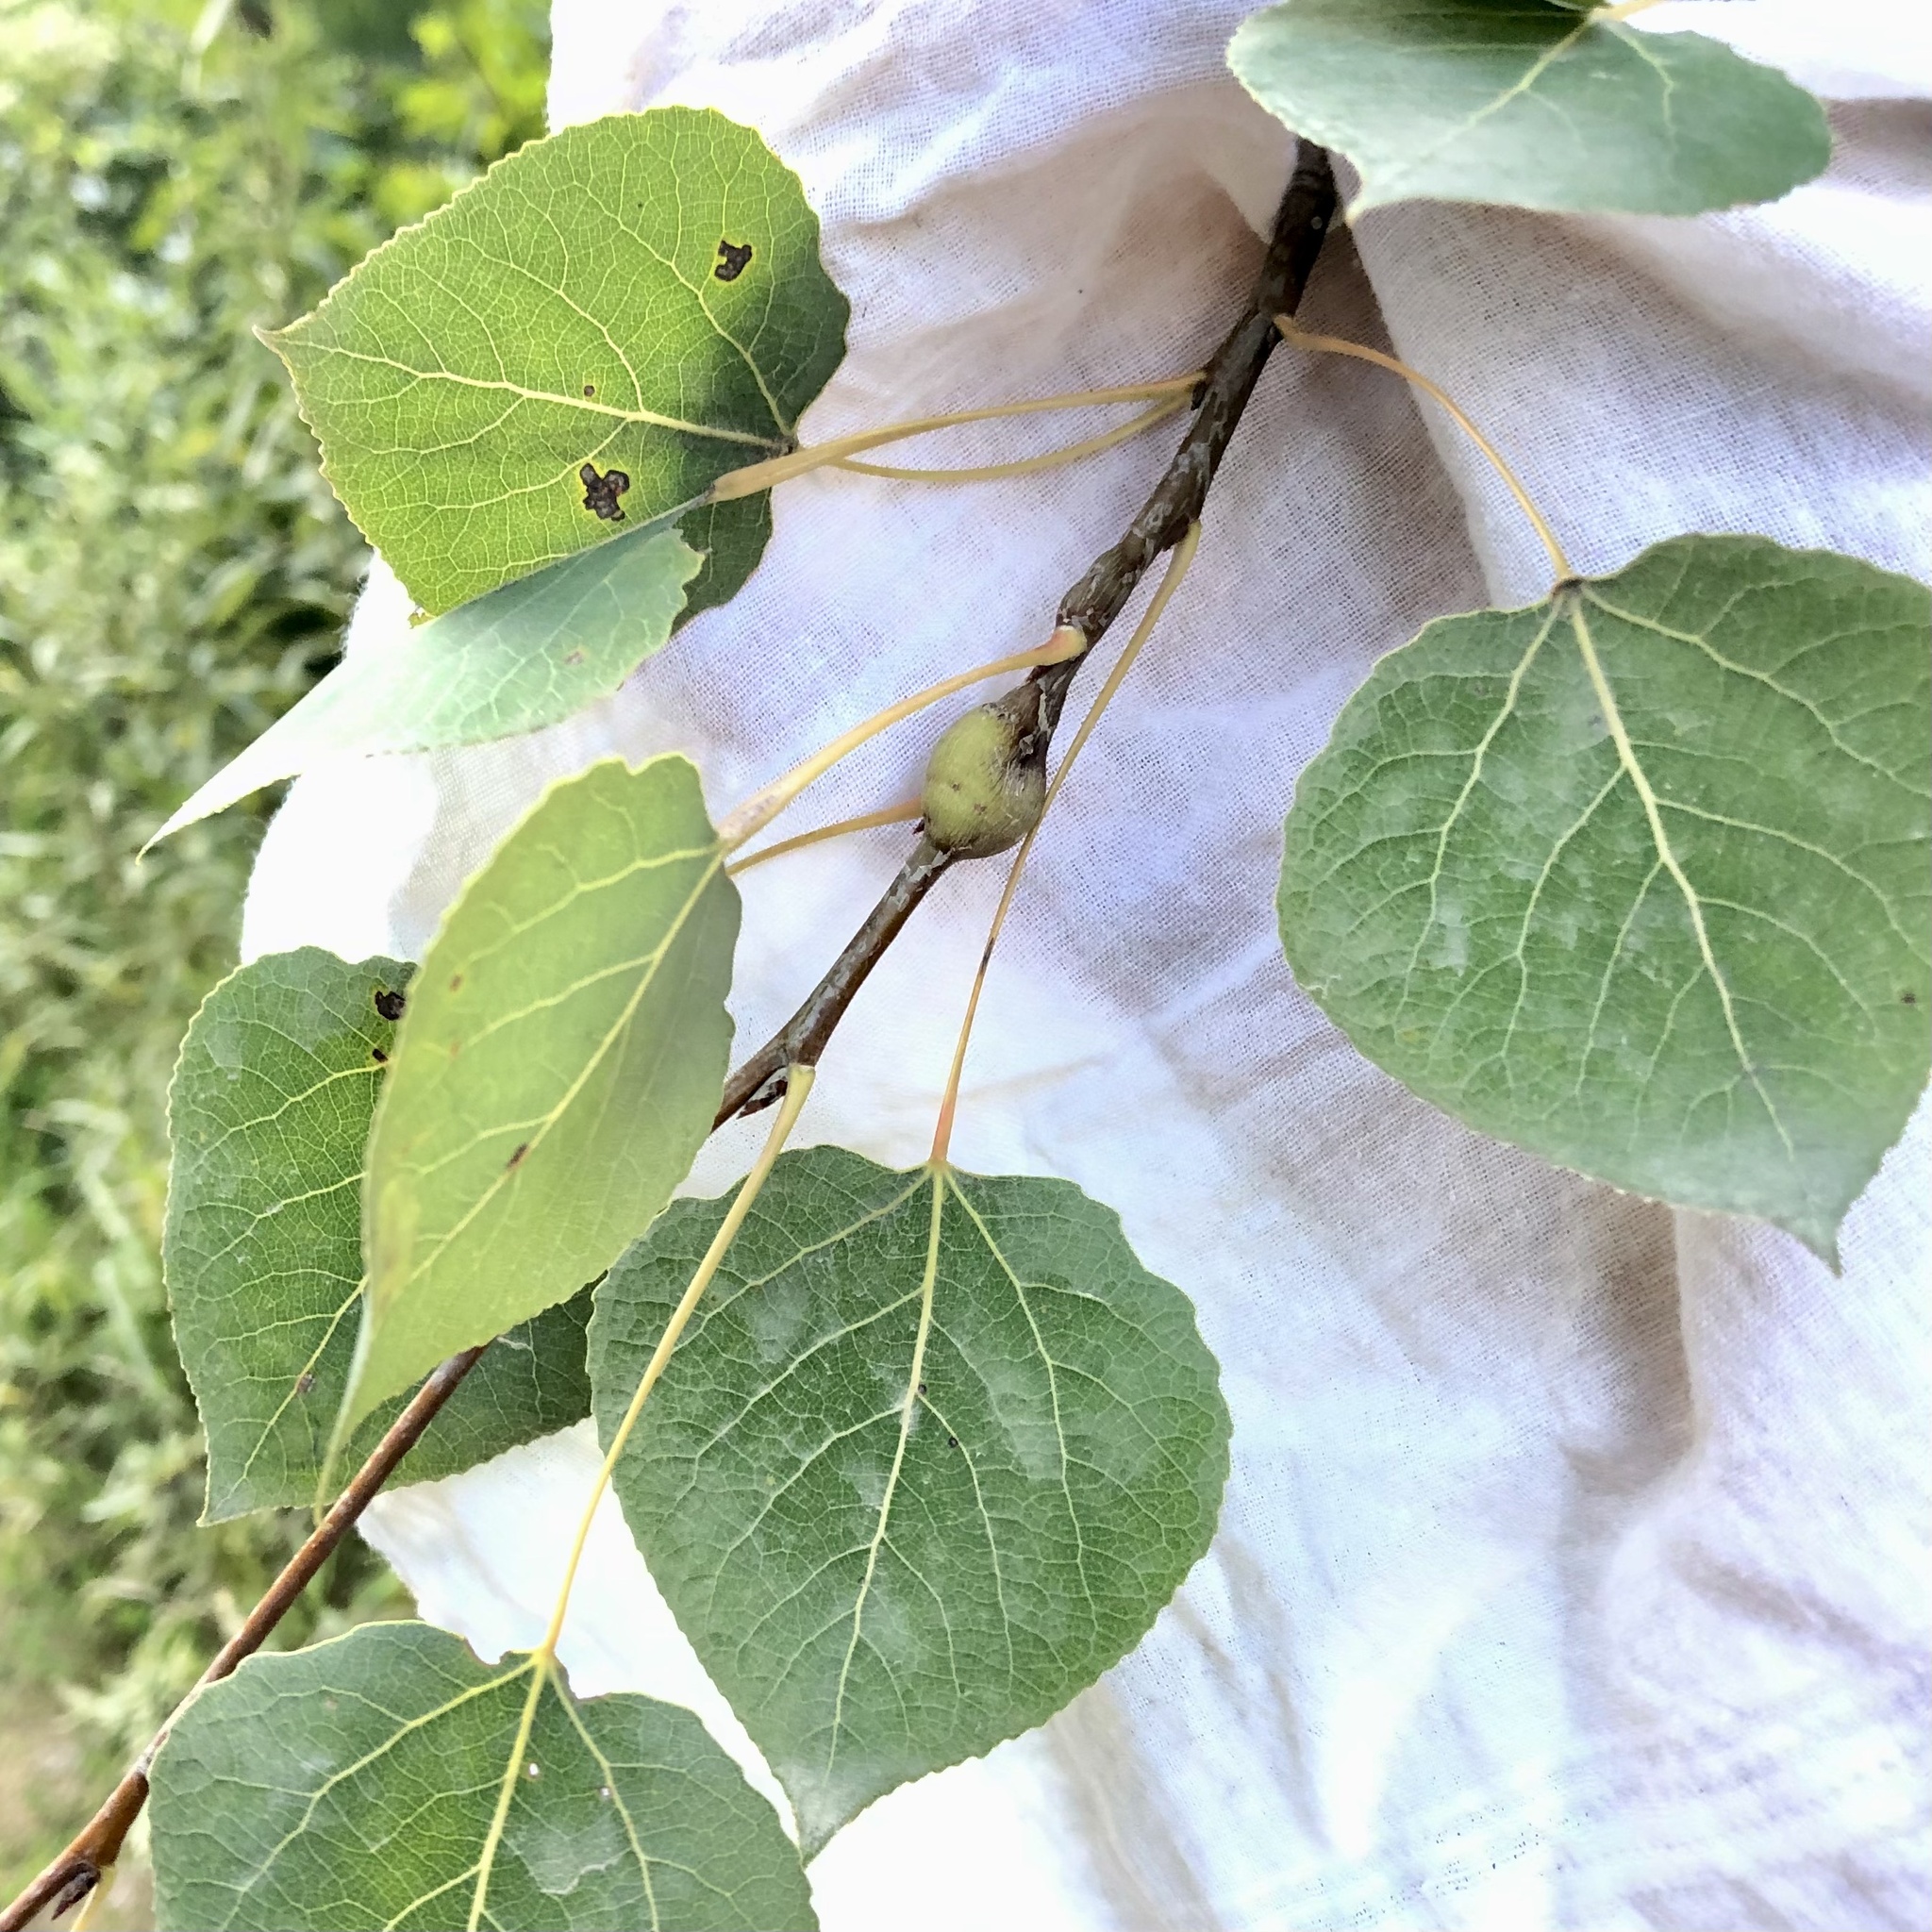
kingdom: Animalia
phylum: Arthropoda
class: Insecta
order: Diptera
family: Agromyzidae
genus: Euhexomyza
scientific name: Euhexomyza schineri
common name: Poplar twiggall fly
